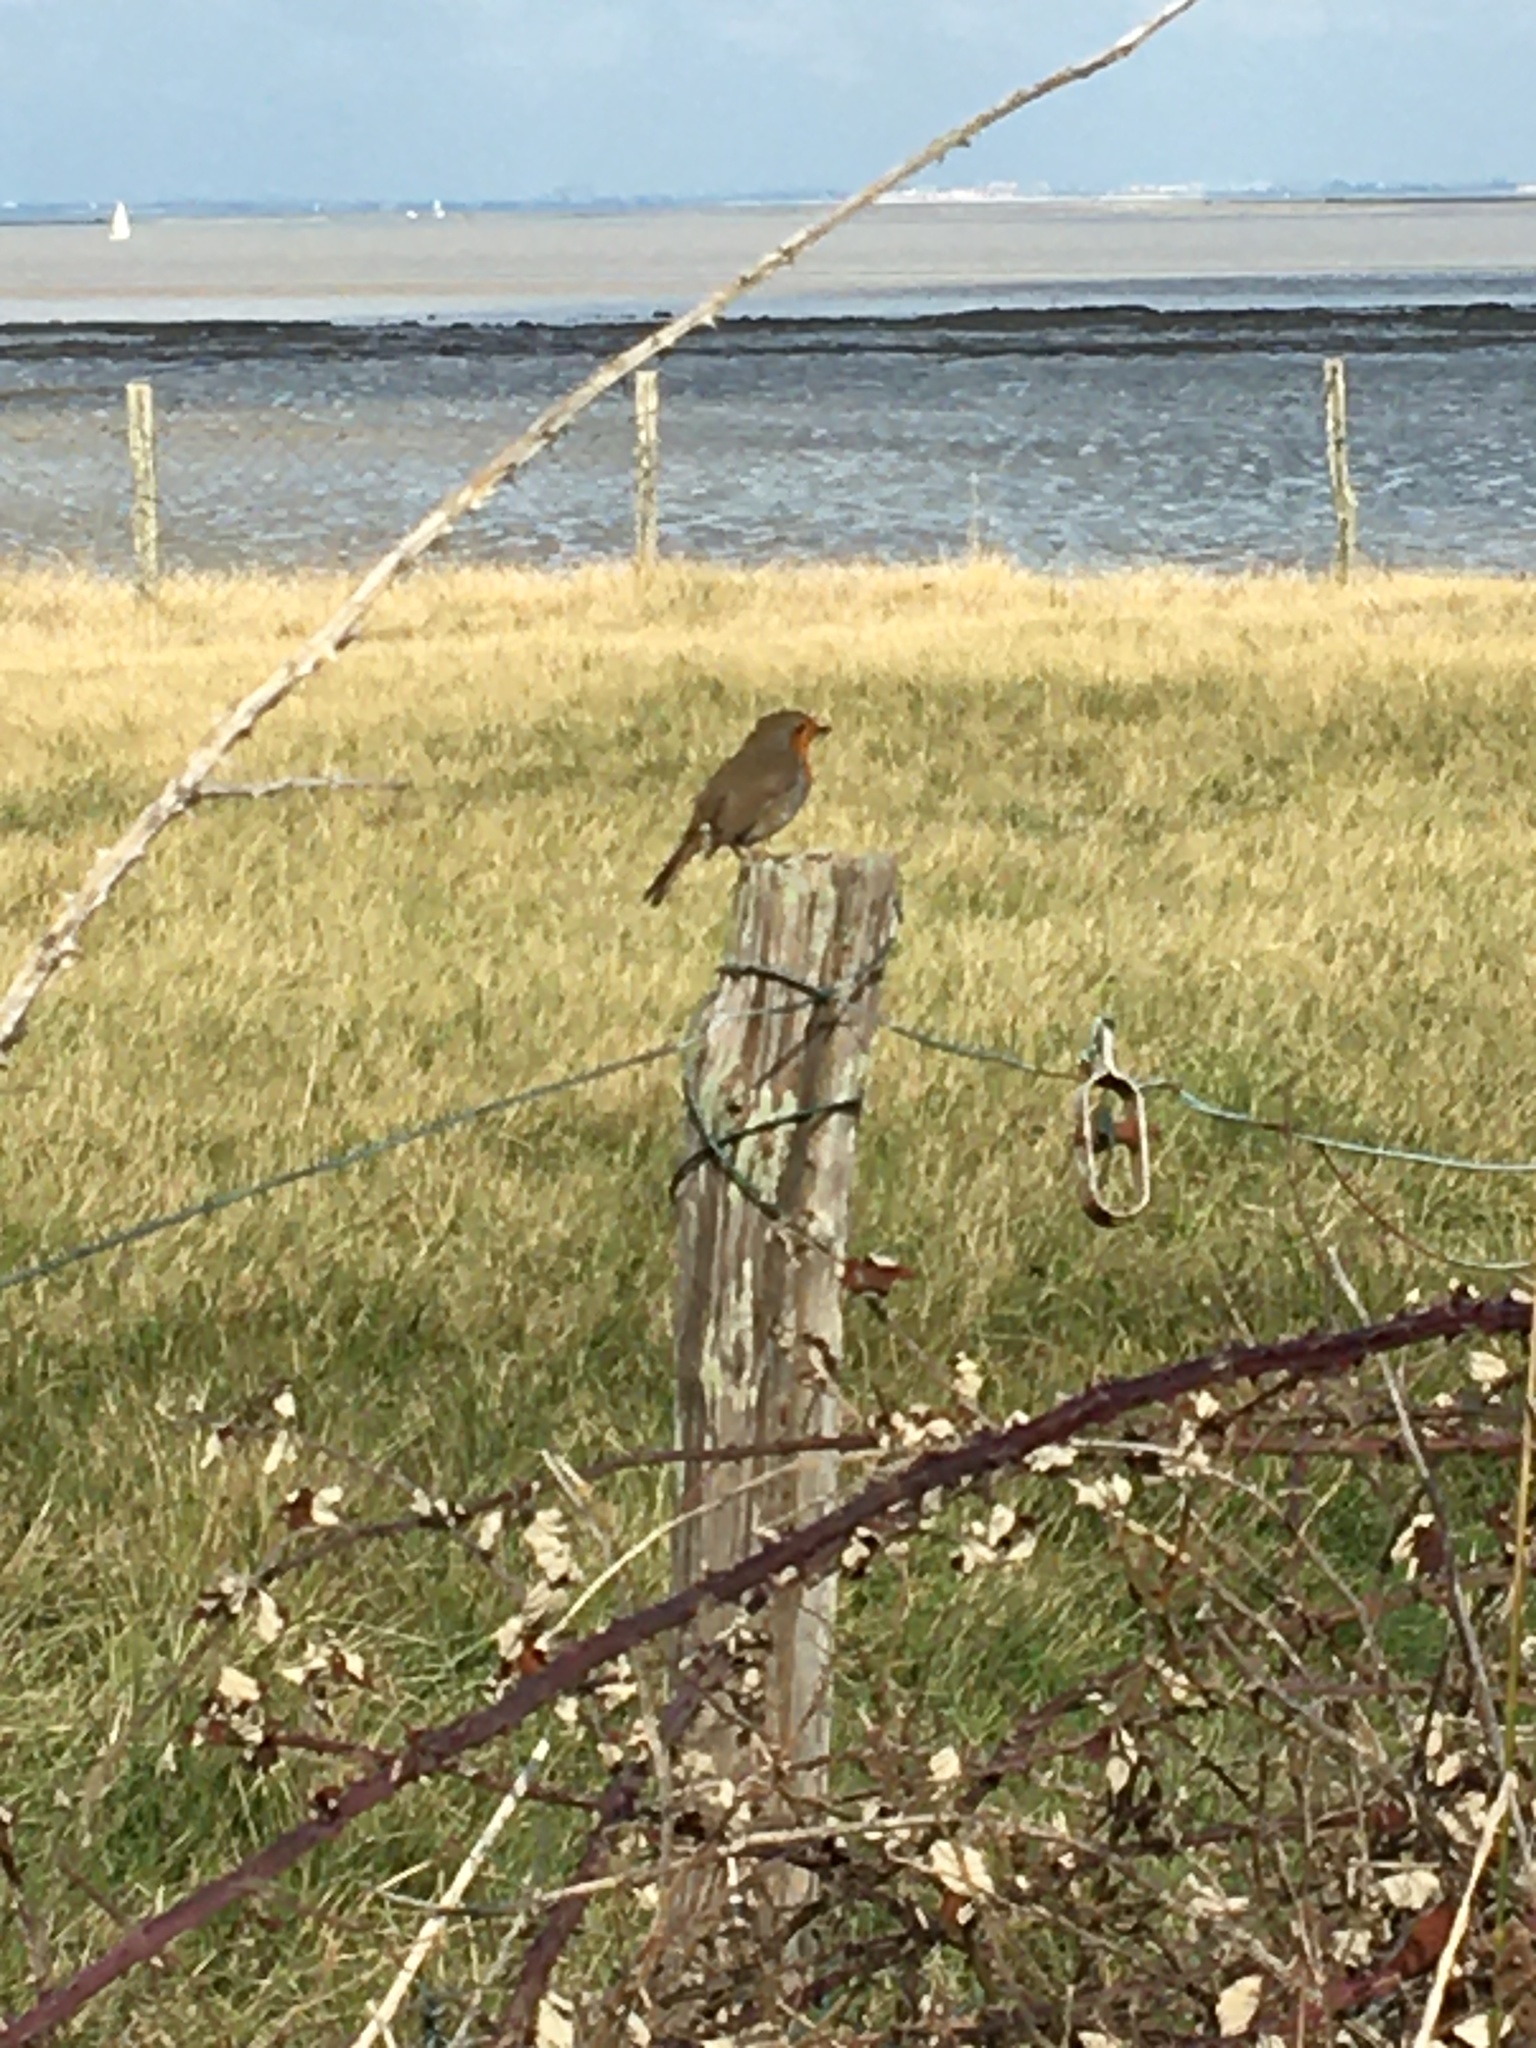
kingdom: Animalia
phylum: Chordata
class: Aves
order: Passeriformes
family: Muscicapidae
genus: Erithacus
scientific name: Erithacus rubecula
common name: European robin
